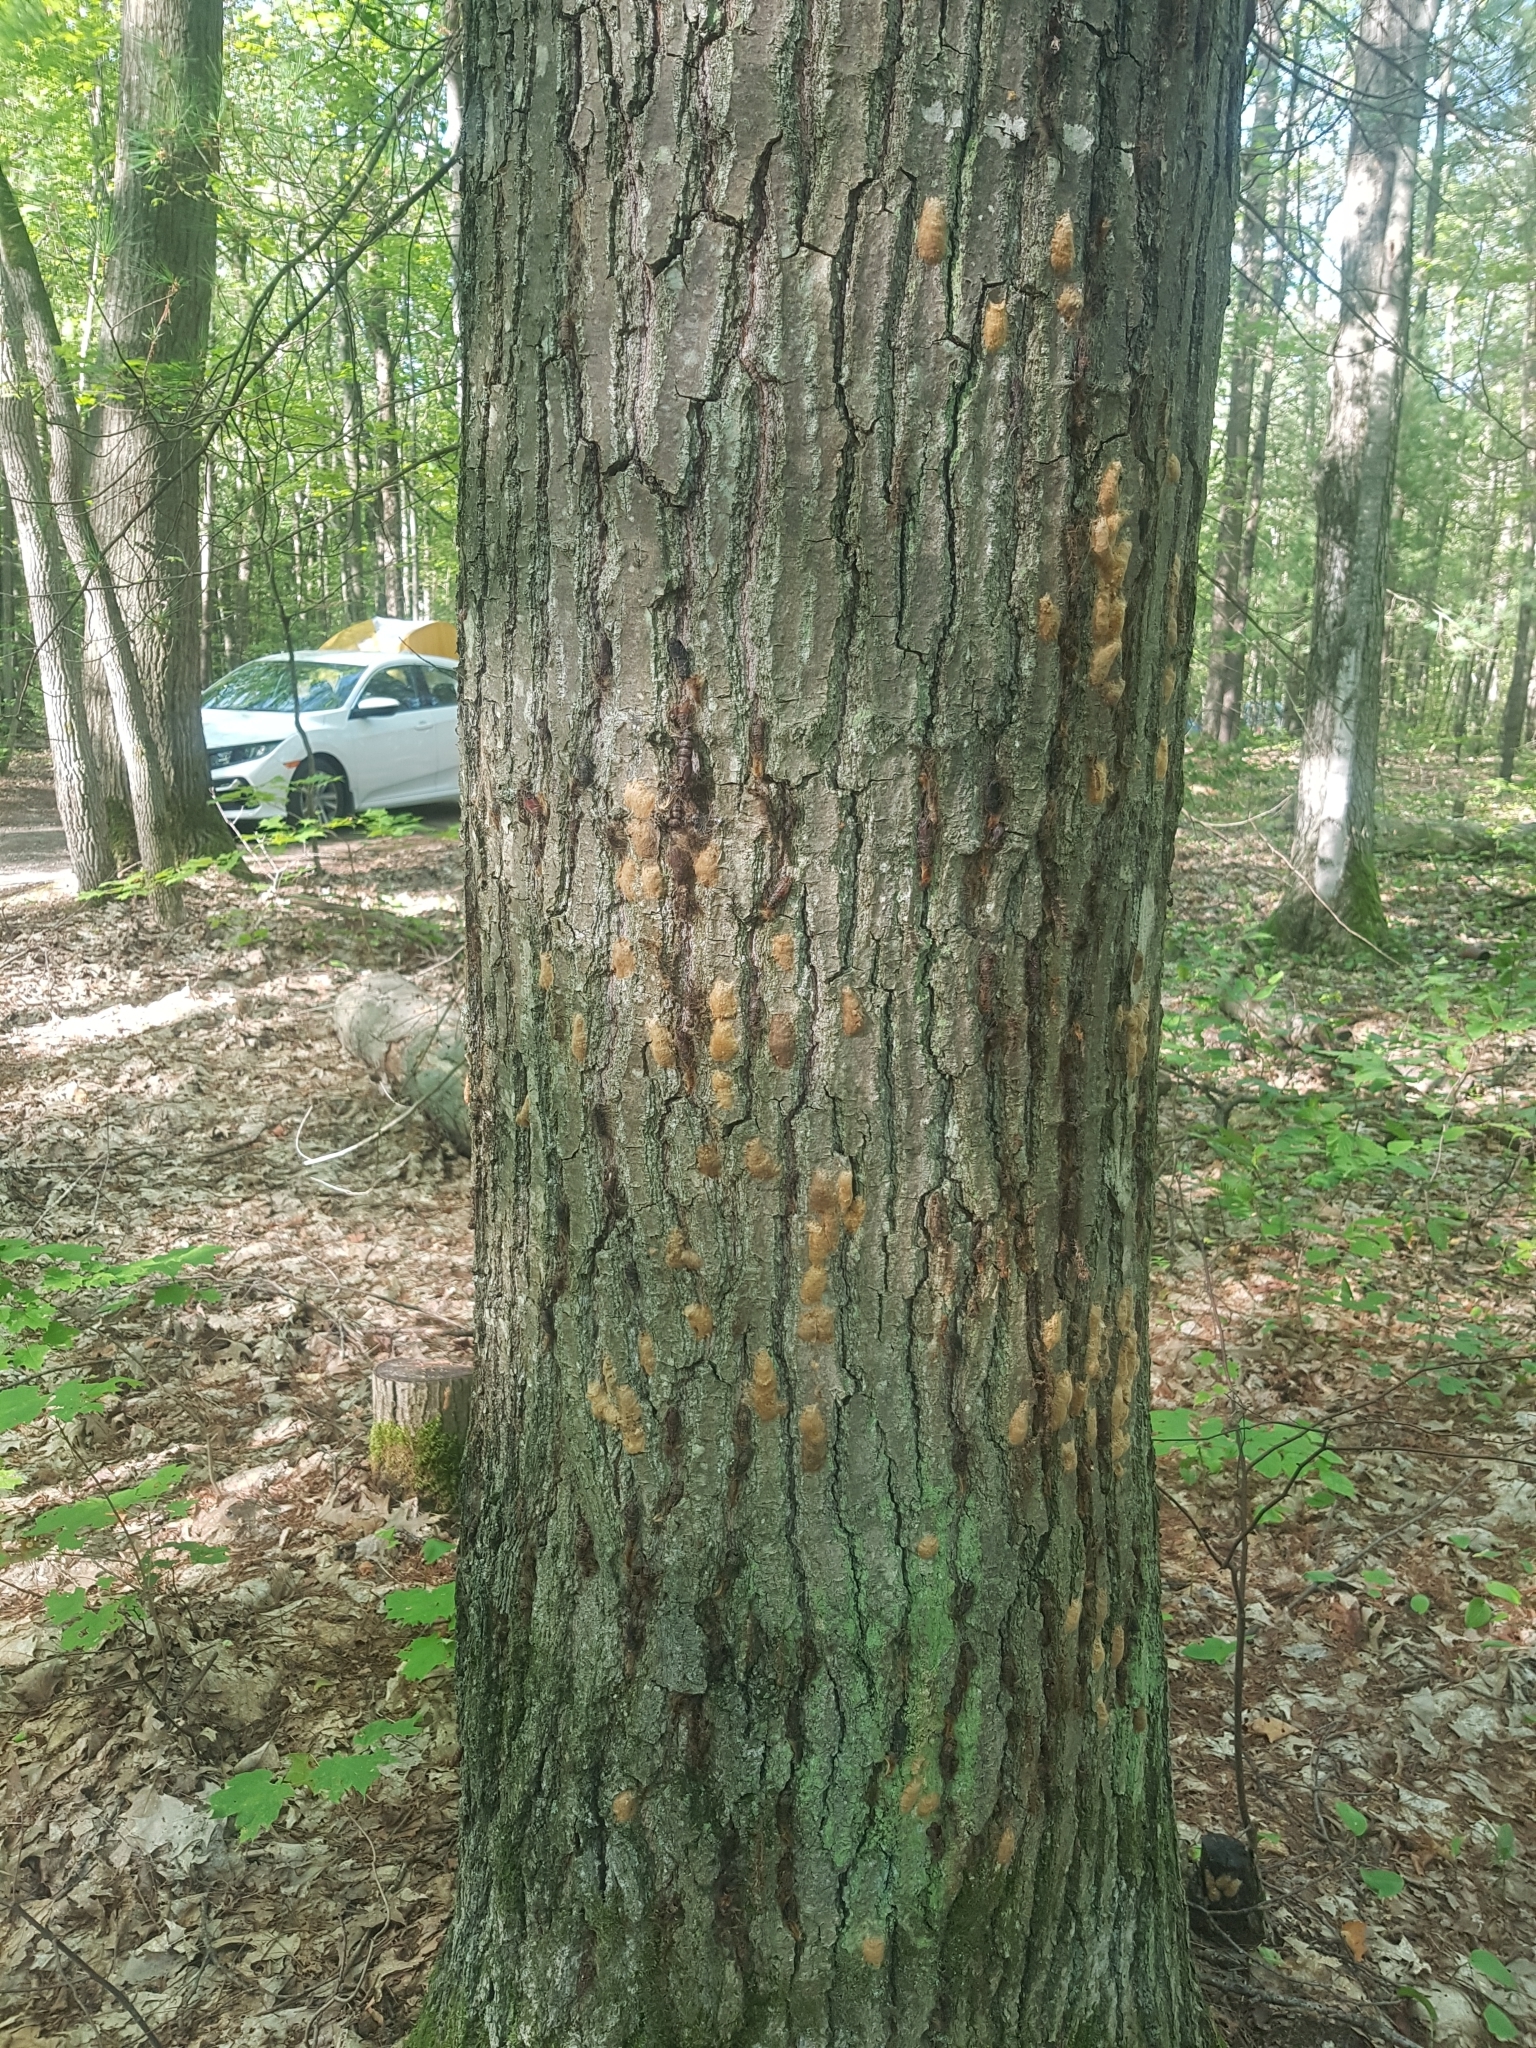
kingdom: Animalia
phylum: Arthropoda
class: Insecta
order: Lepidoptera
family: Erebidae
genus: Lymantria
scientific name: Lymantria dispar
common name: Gypsy moth
